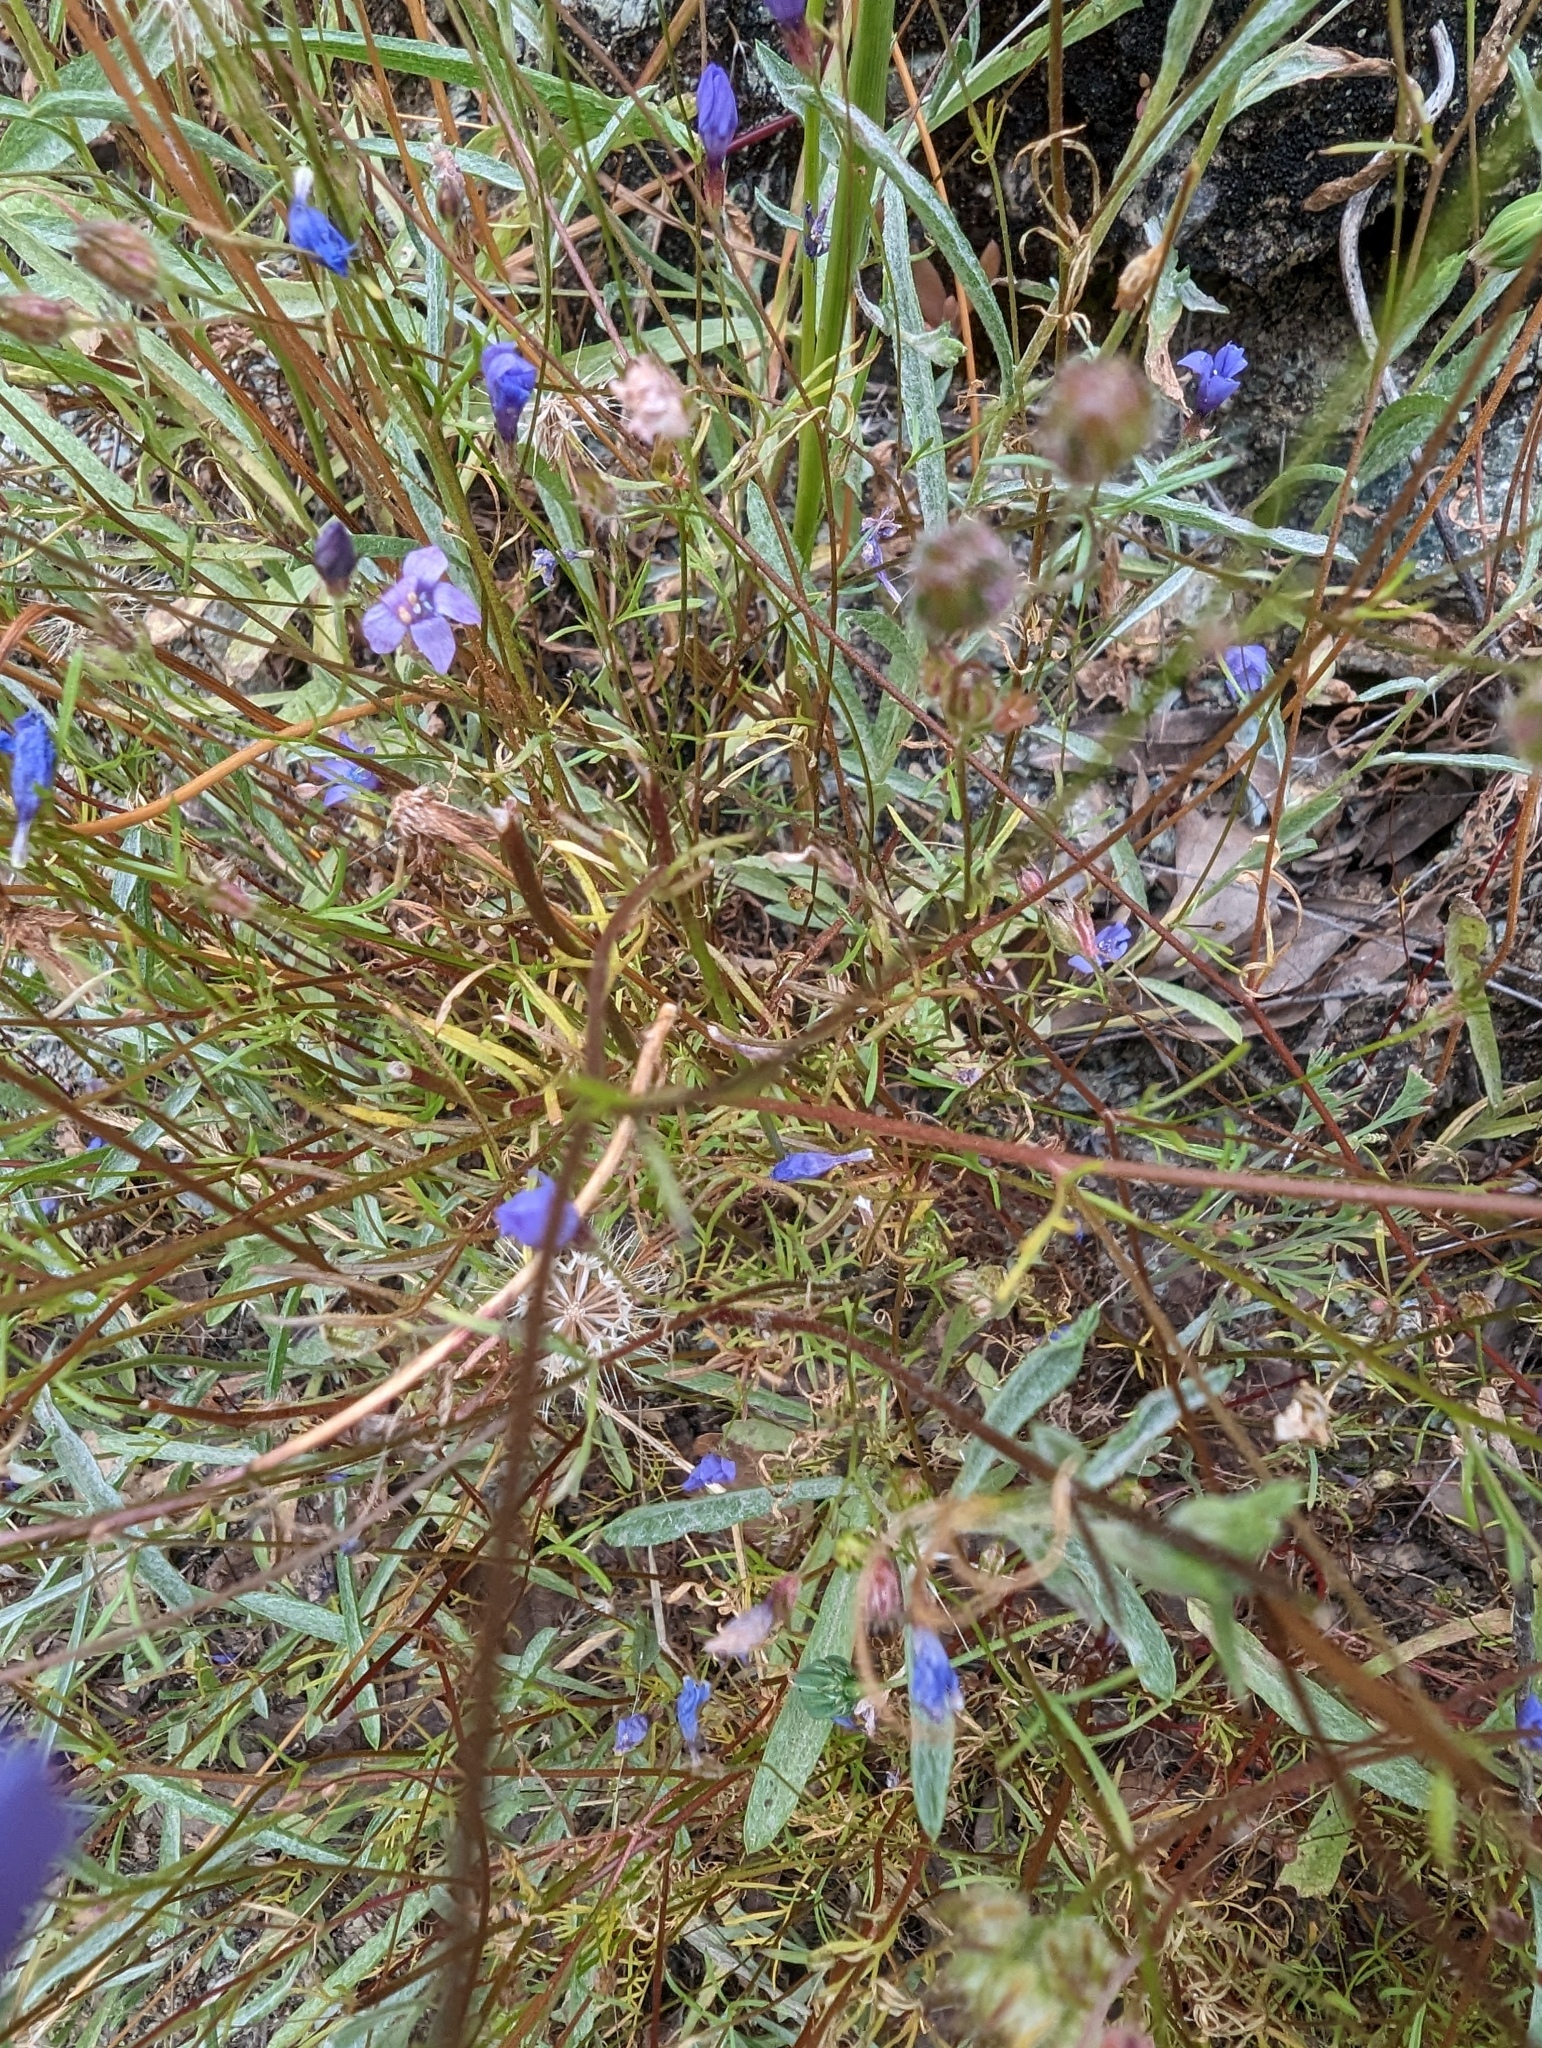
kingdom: Plantae
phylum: Tracheophyta
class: Magnoliopsida
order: Ericales
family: Polemoniaceae
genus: Gilia
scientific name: Gilia achilleifolia
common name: California gily-flower
